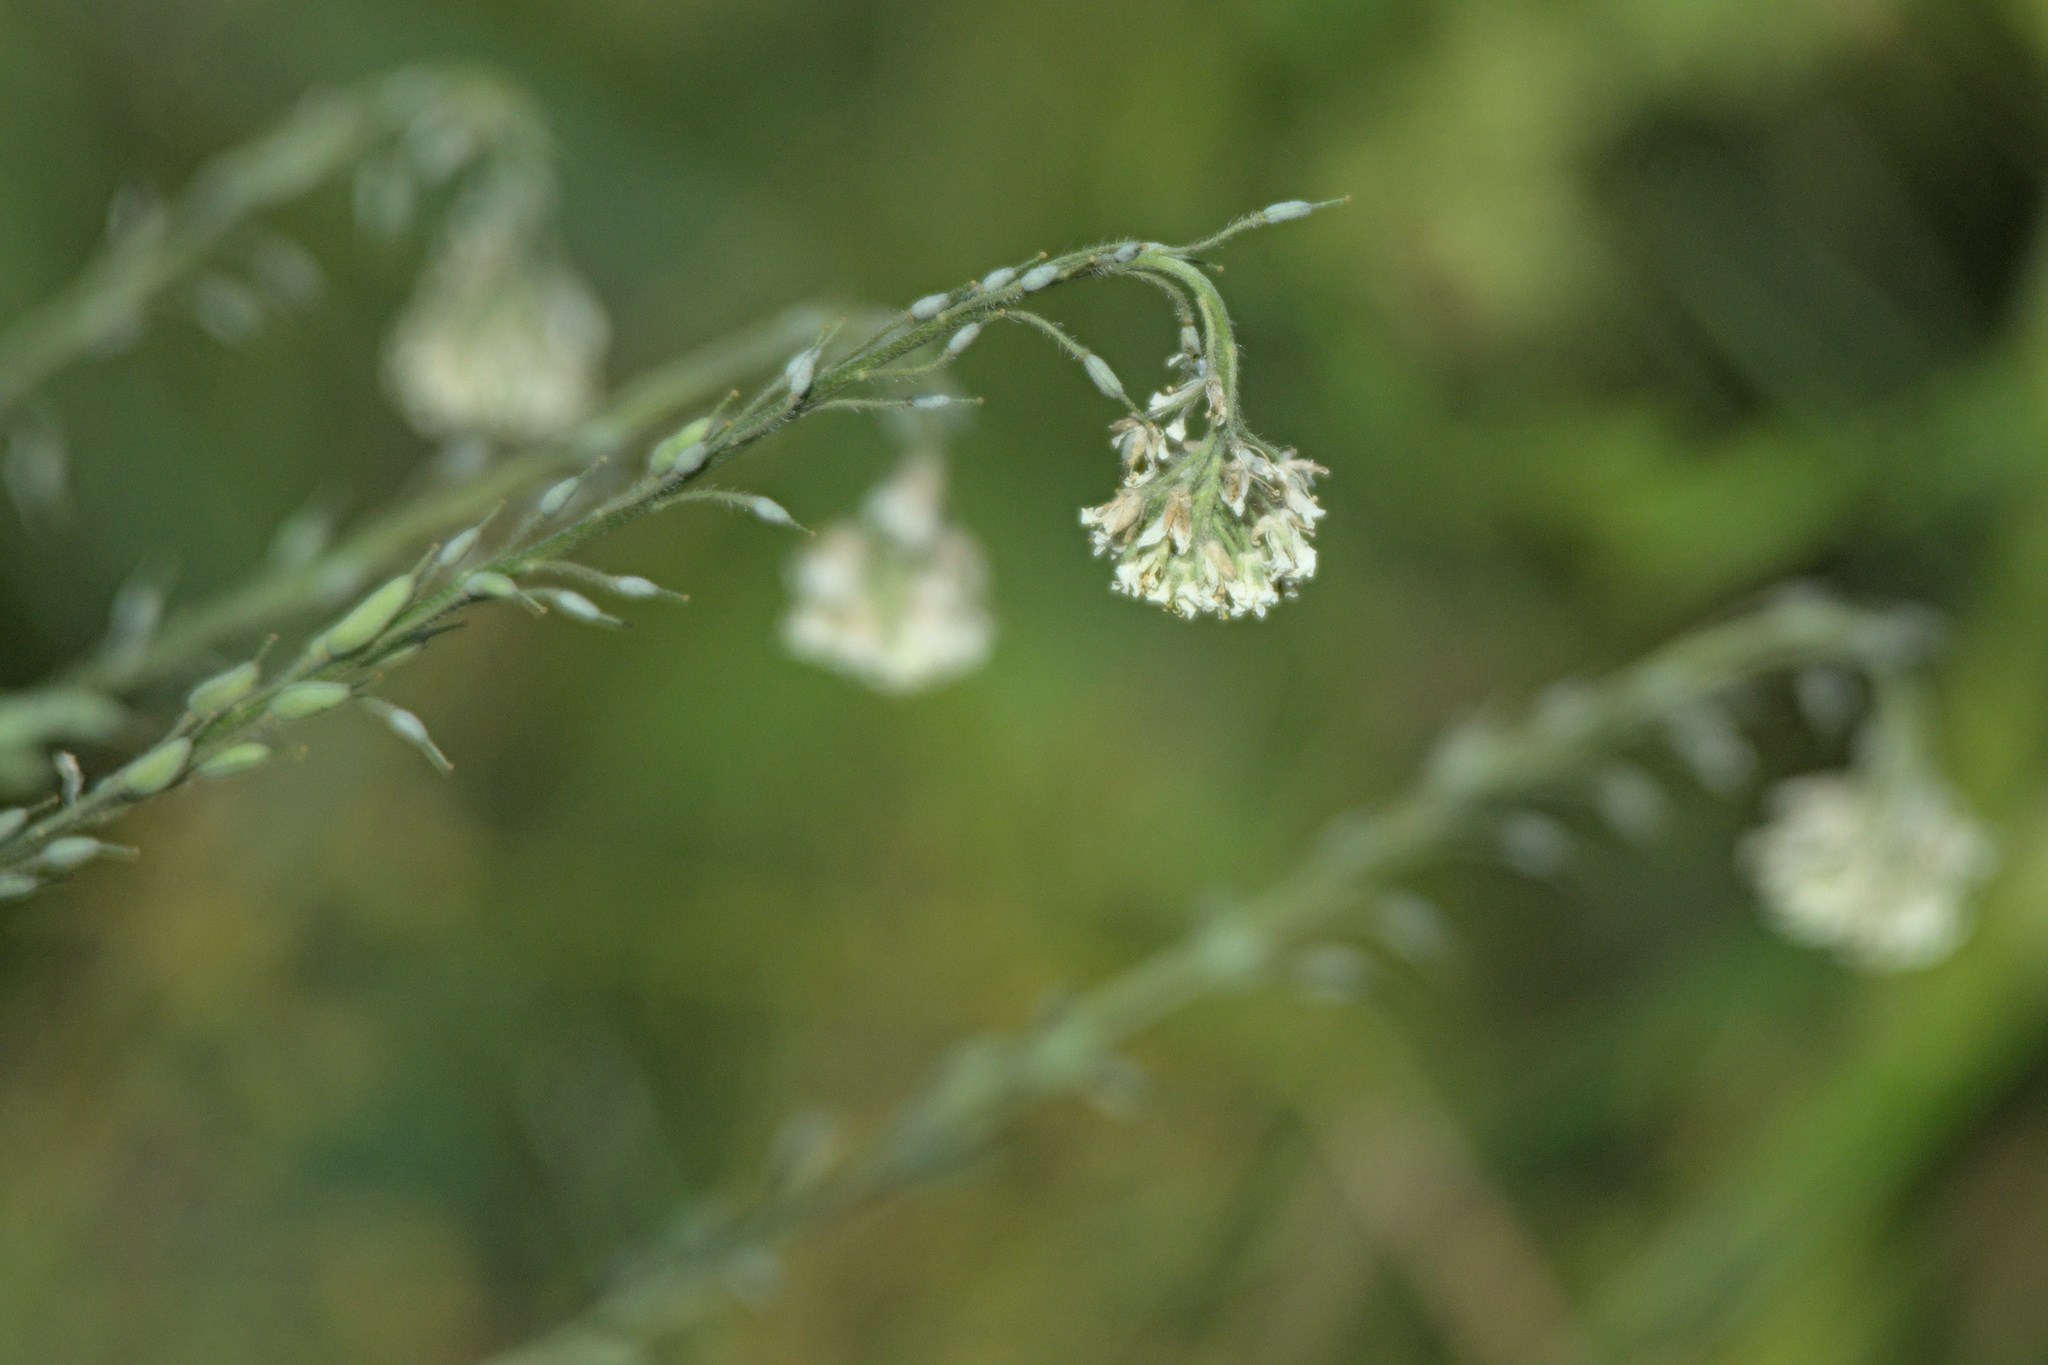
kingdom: Plantae
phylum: Tracheophyta
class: Magnoliopsida
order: Brassicales
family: Brassicaceae
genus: Berteroa
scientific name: Berteroa incana
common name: Hoary alison
